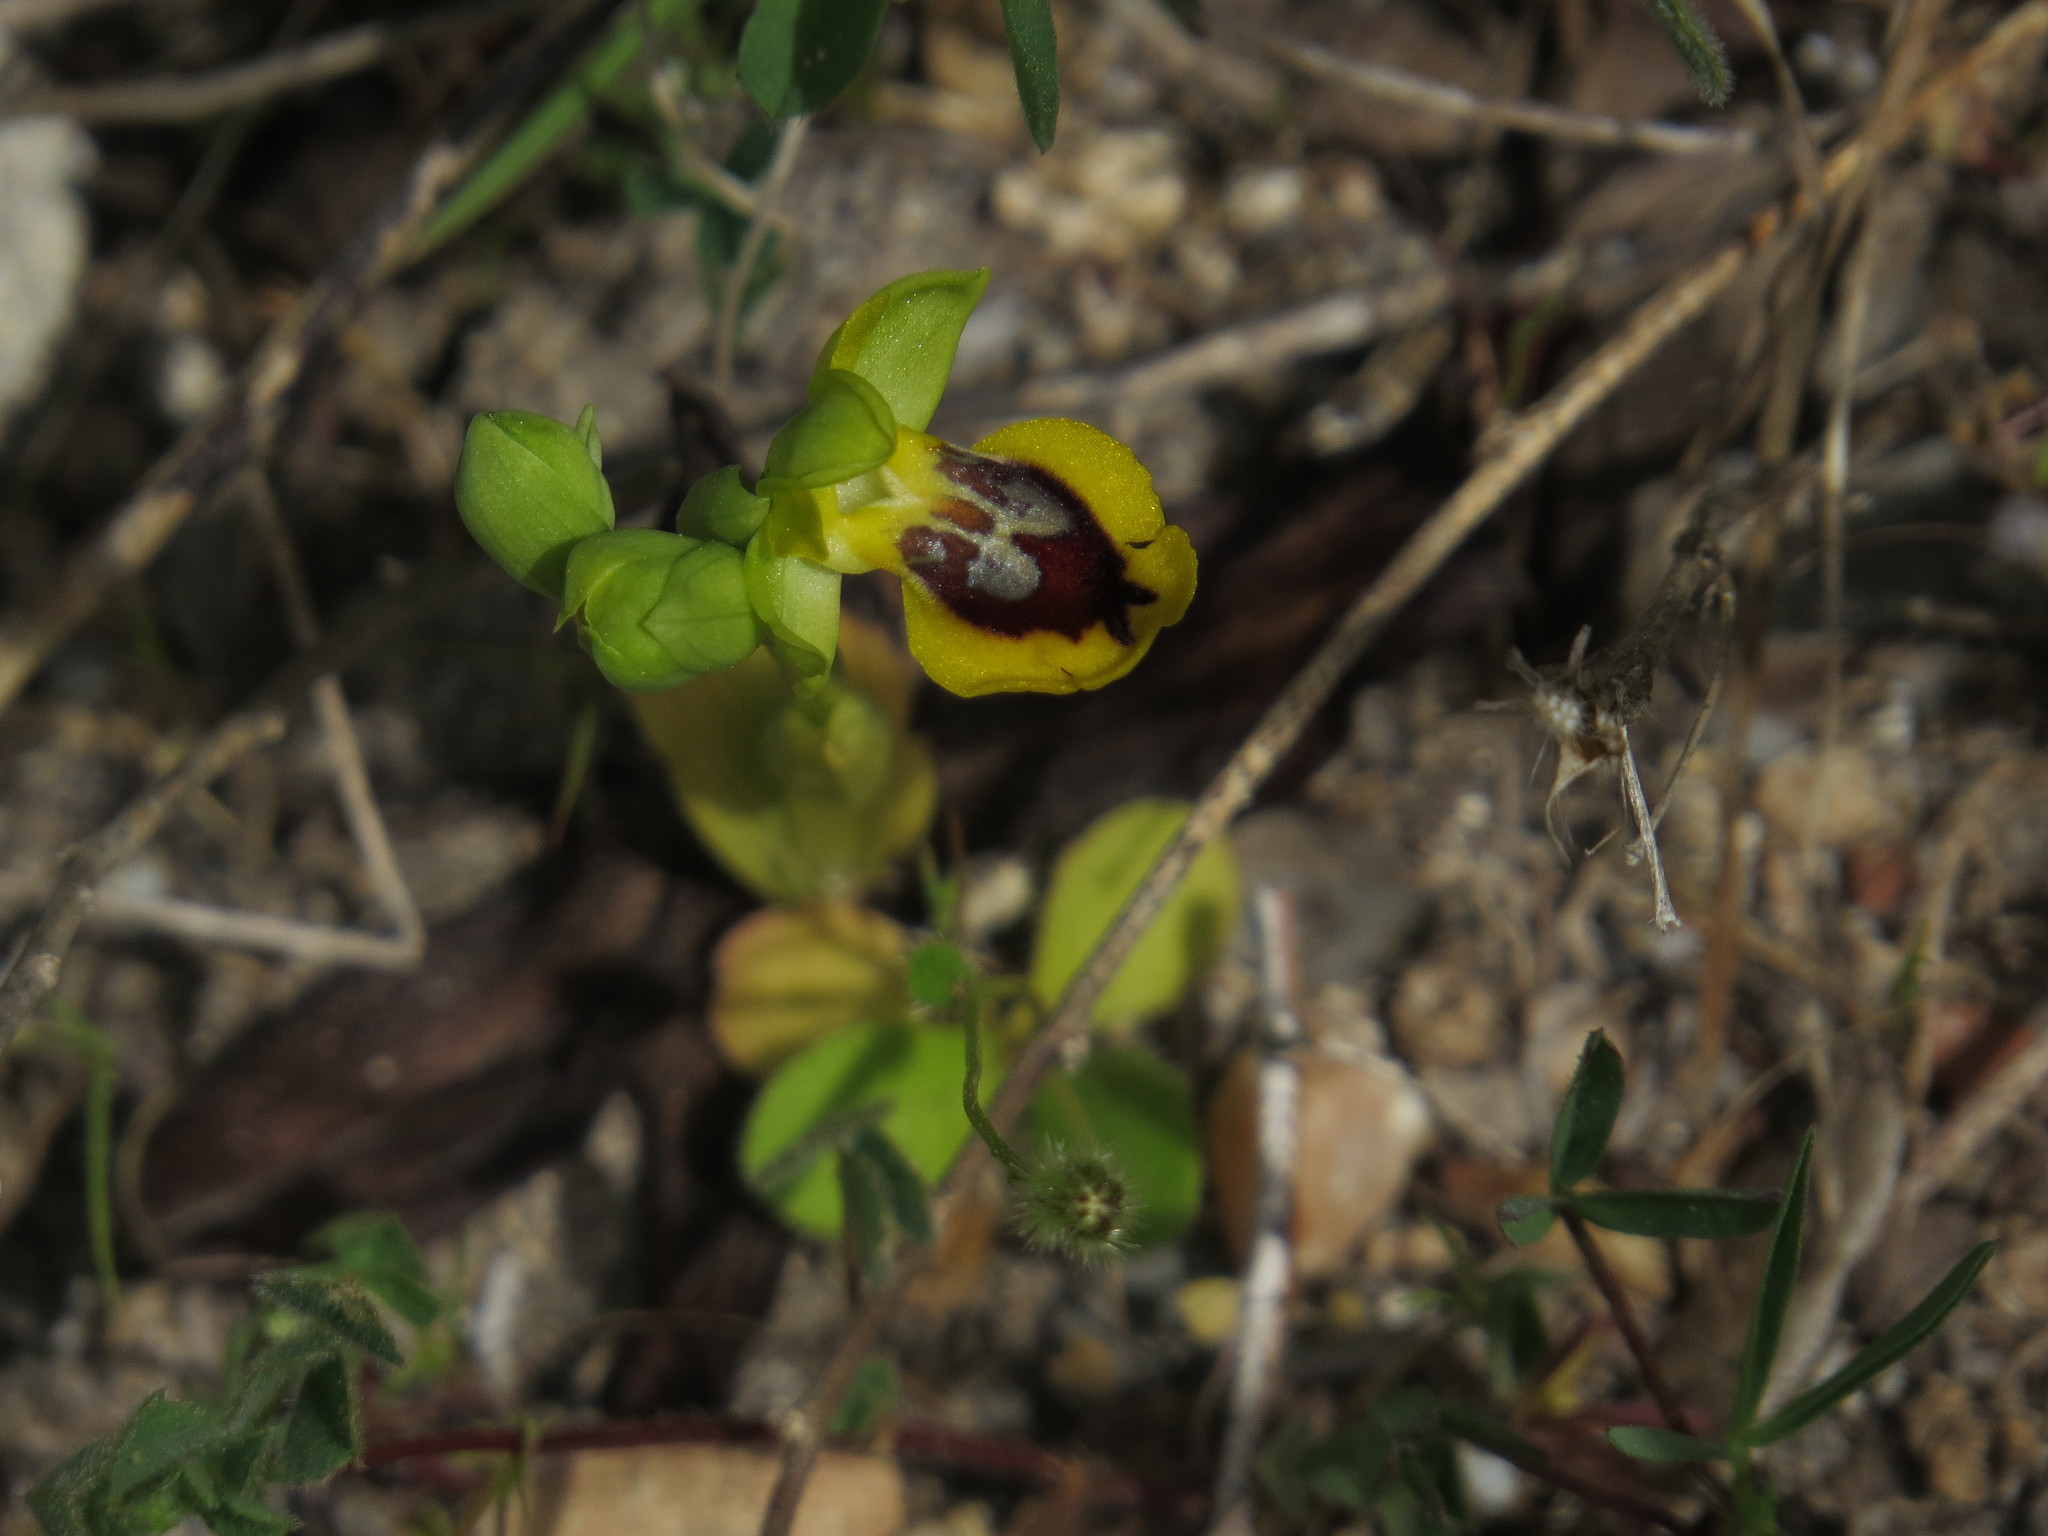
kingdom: Plantae
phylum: Tracheophyta
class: Liliopsida
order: Asparagales
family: Orchidaceae
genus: Ophrys
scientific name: Ophrys lutea
